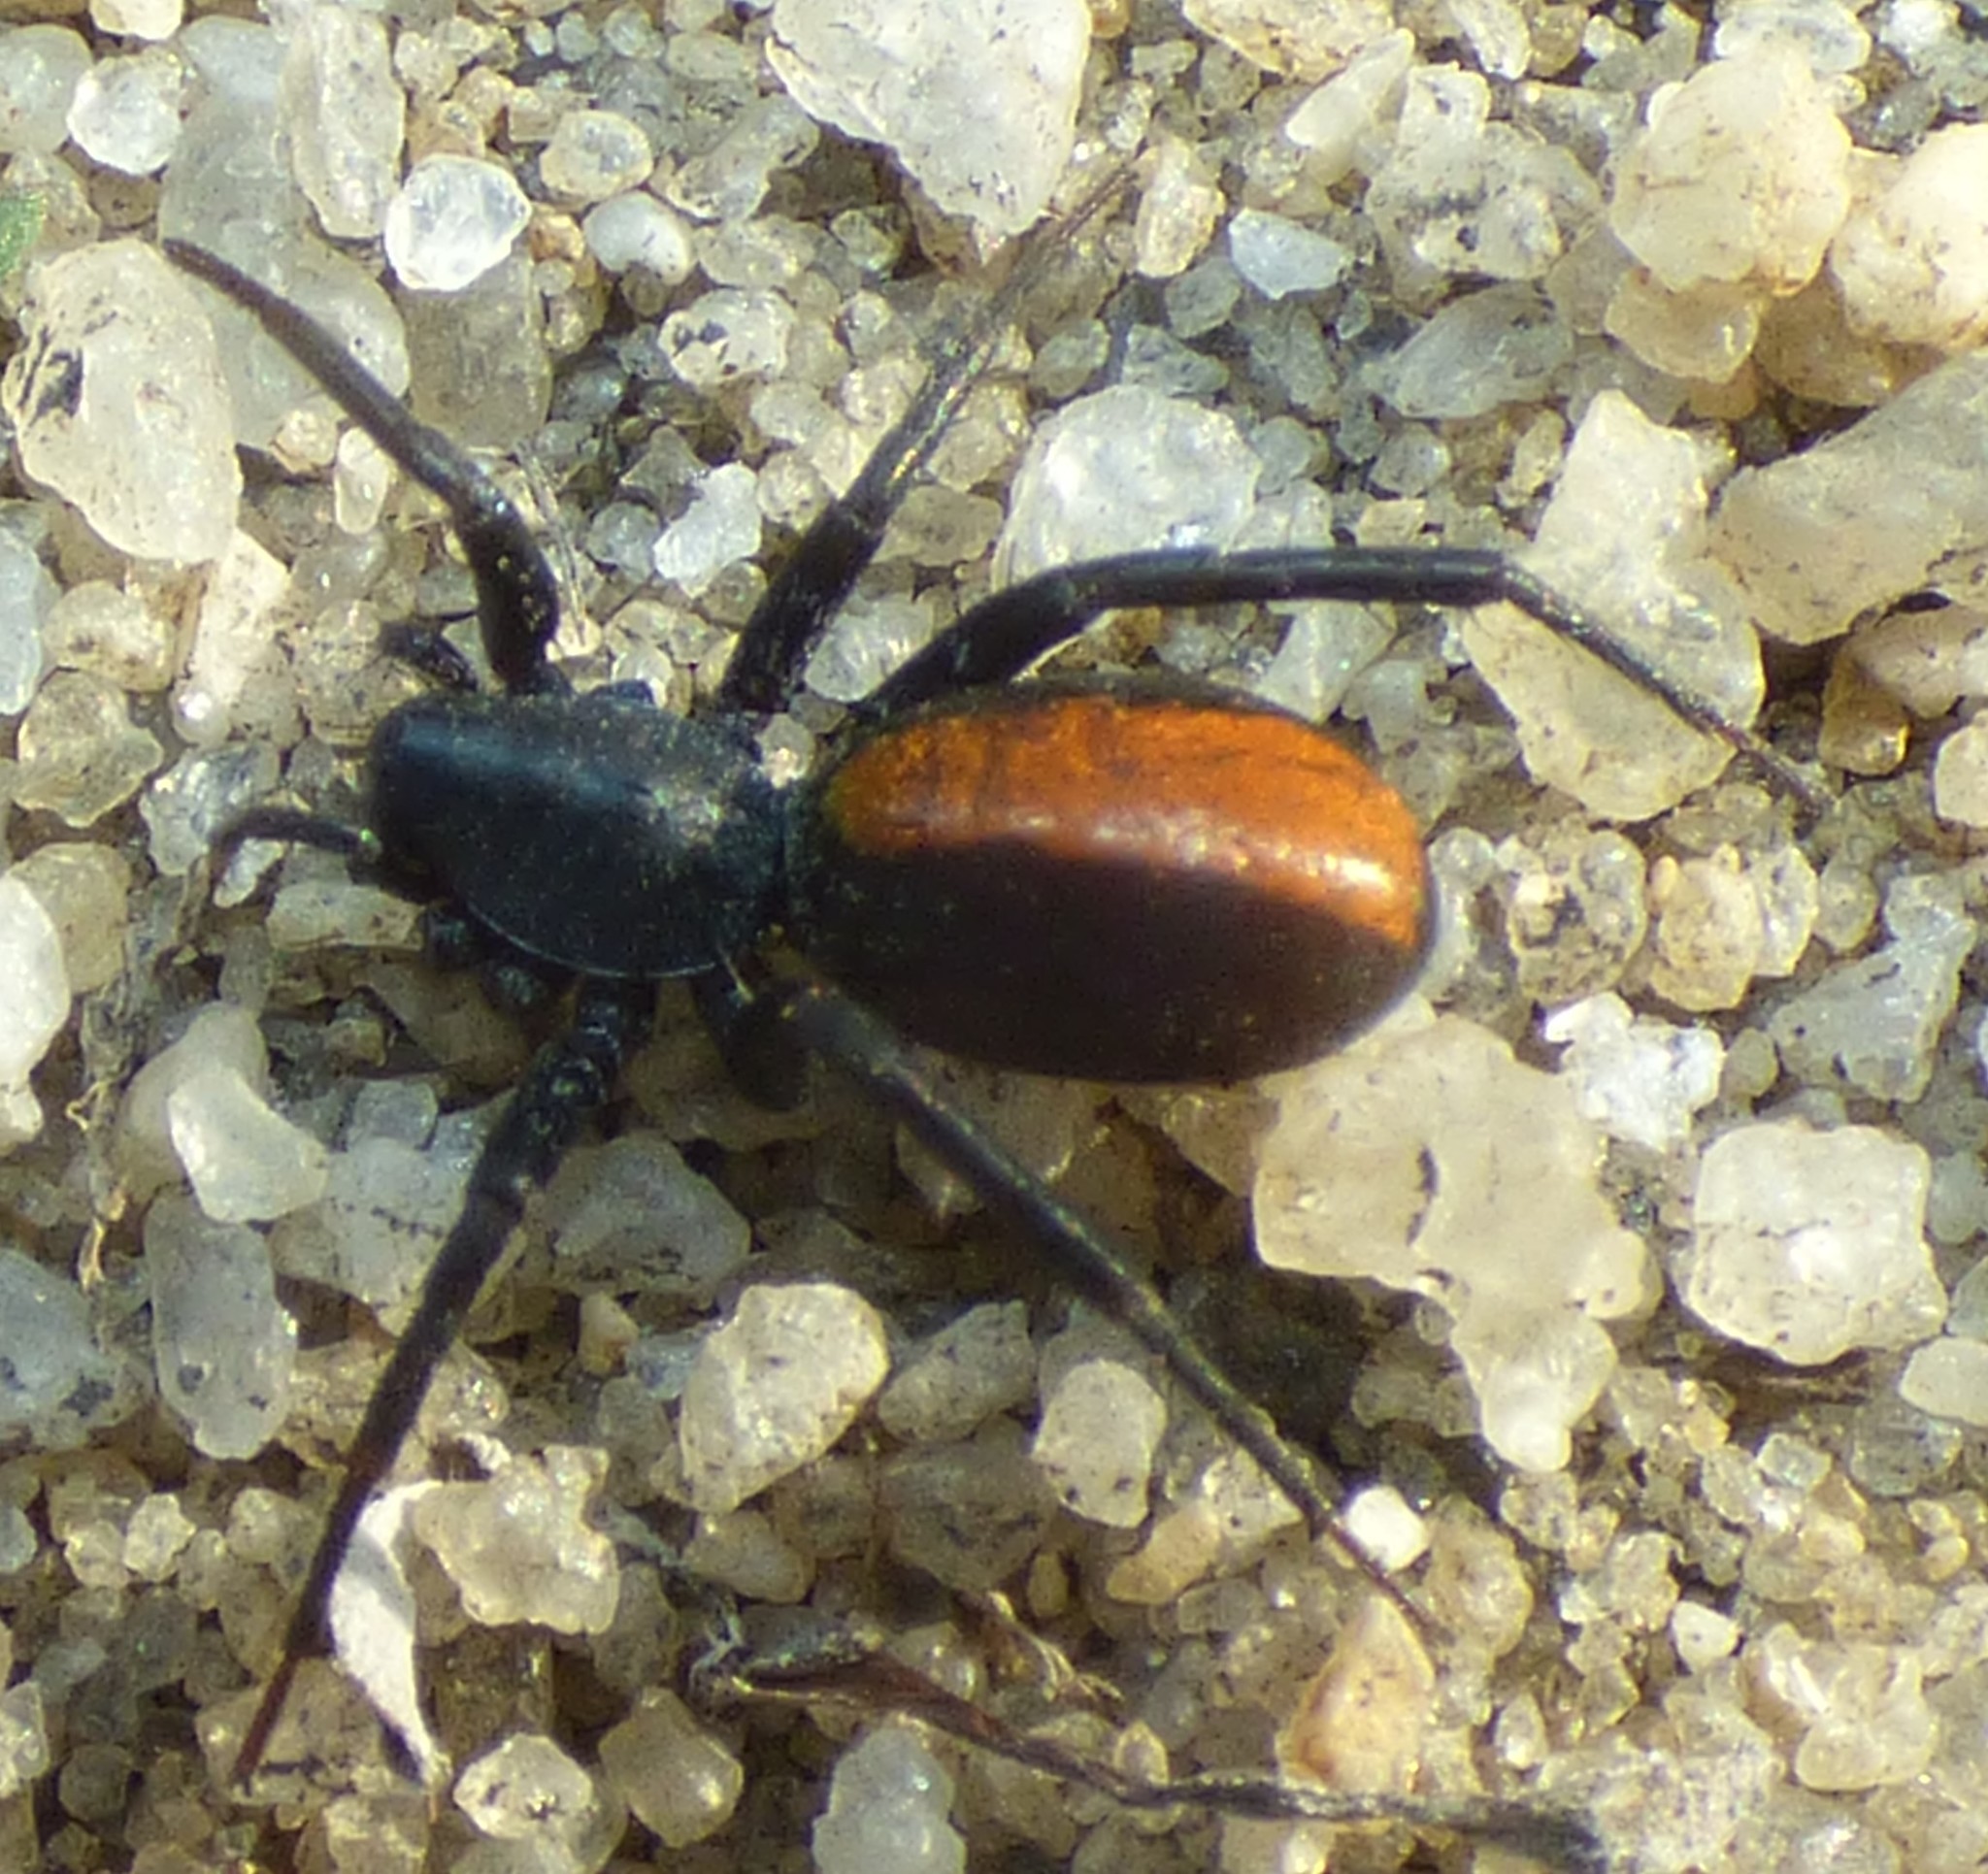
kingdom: Animalia
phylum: Arthropoda
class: Arachnida
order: Araneae
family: Corinnidae
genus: Castianeira
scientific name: Castianeira descripta
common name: Red-spotted ant-mimic sac spider
